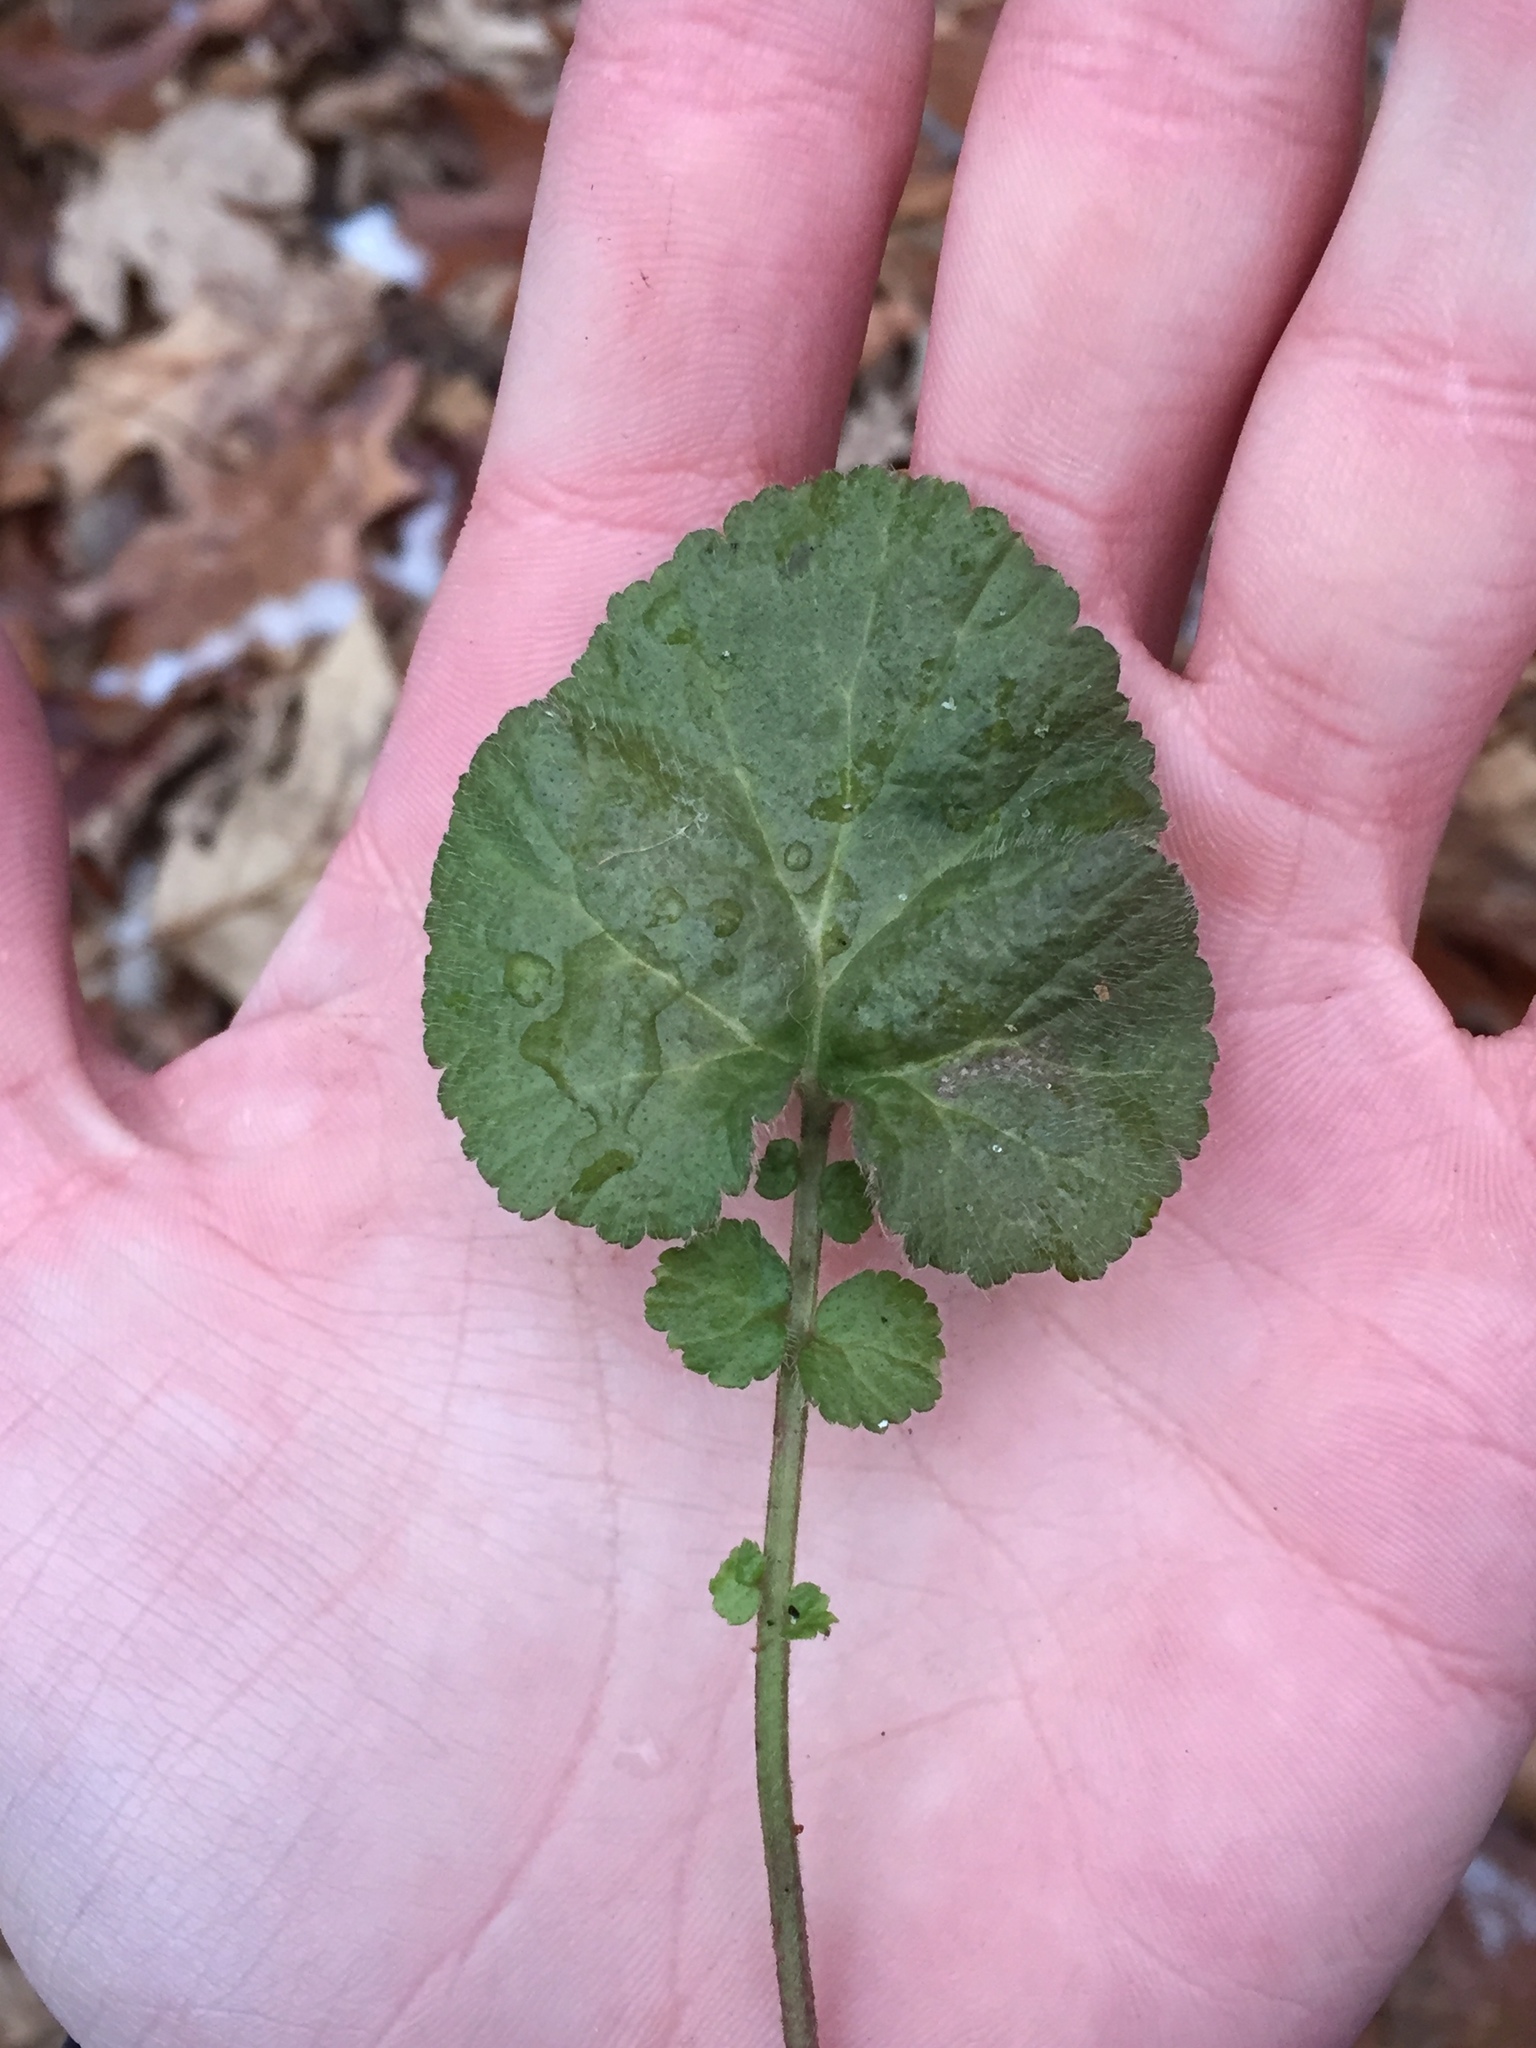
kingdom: Plantae
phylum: Tracheophyta
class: Magnoliopsida
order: Rosales
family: Rosaceae
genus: Geum
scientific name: Geum canadense
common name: White avens
